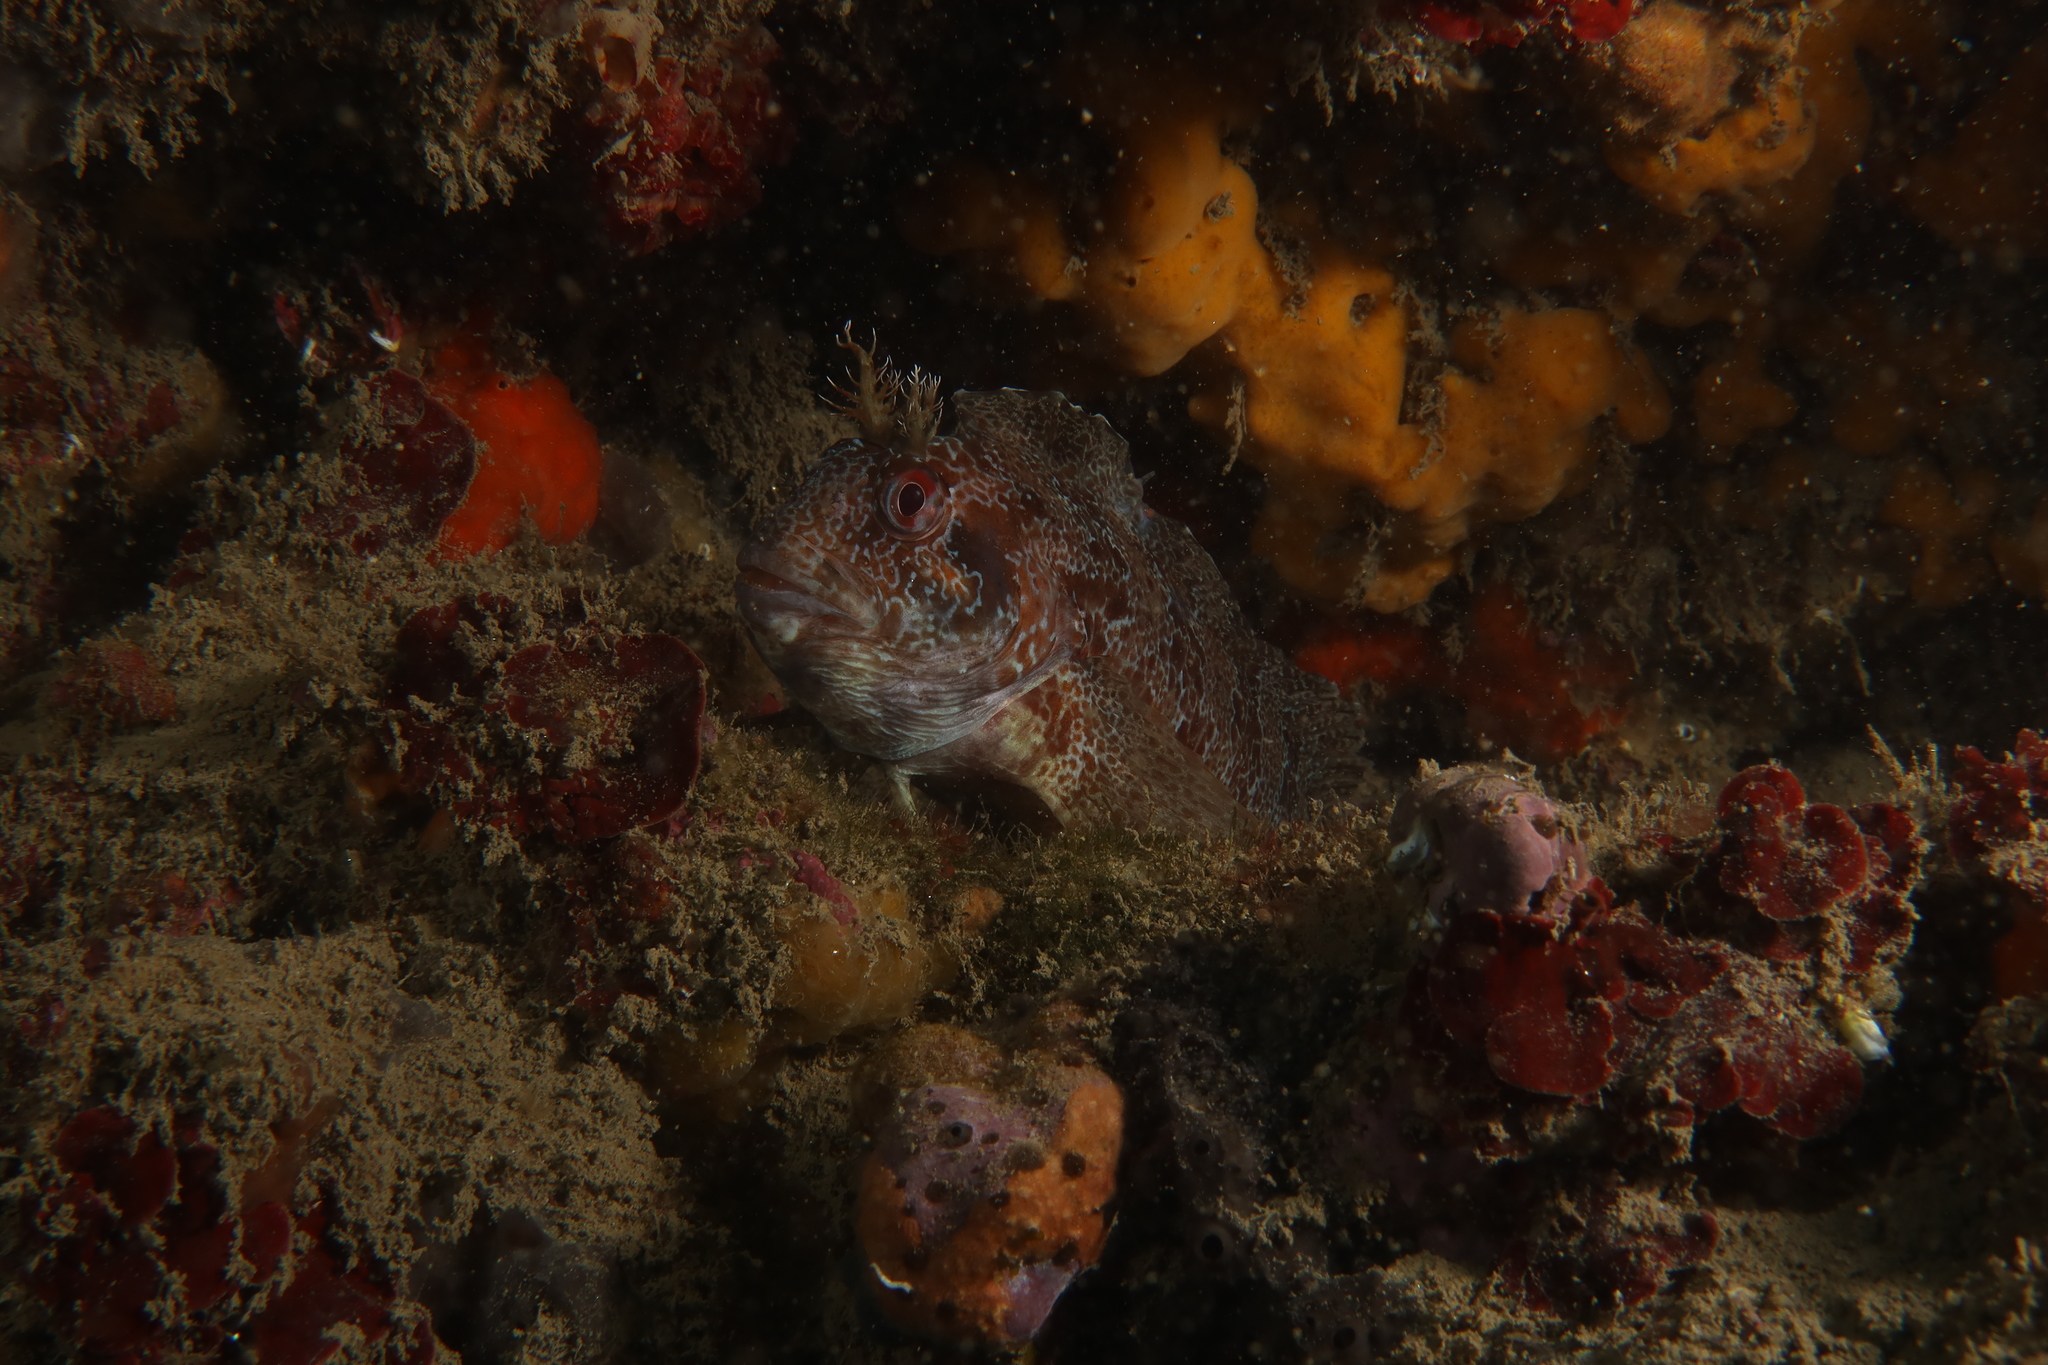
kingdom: Animalia
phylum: Chordata
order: Perciformes
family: Blenniidae
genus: Parablennius
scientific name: Parablennius gattorugine
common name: Tompot blenny
